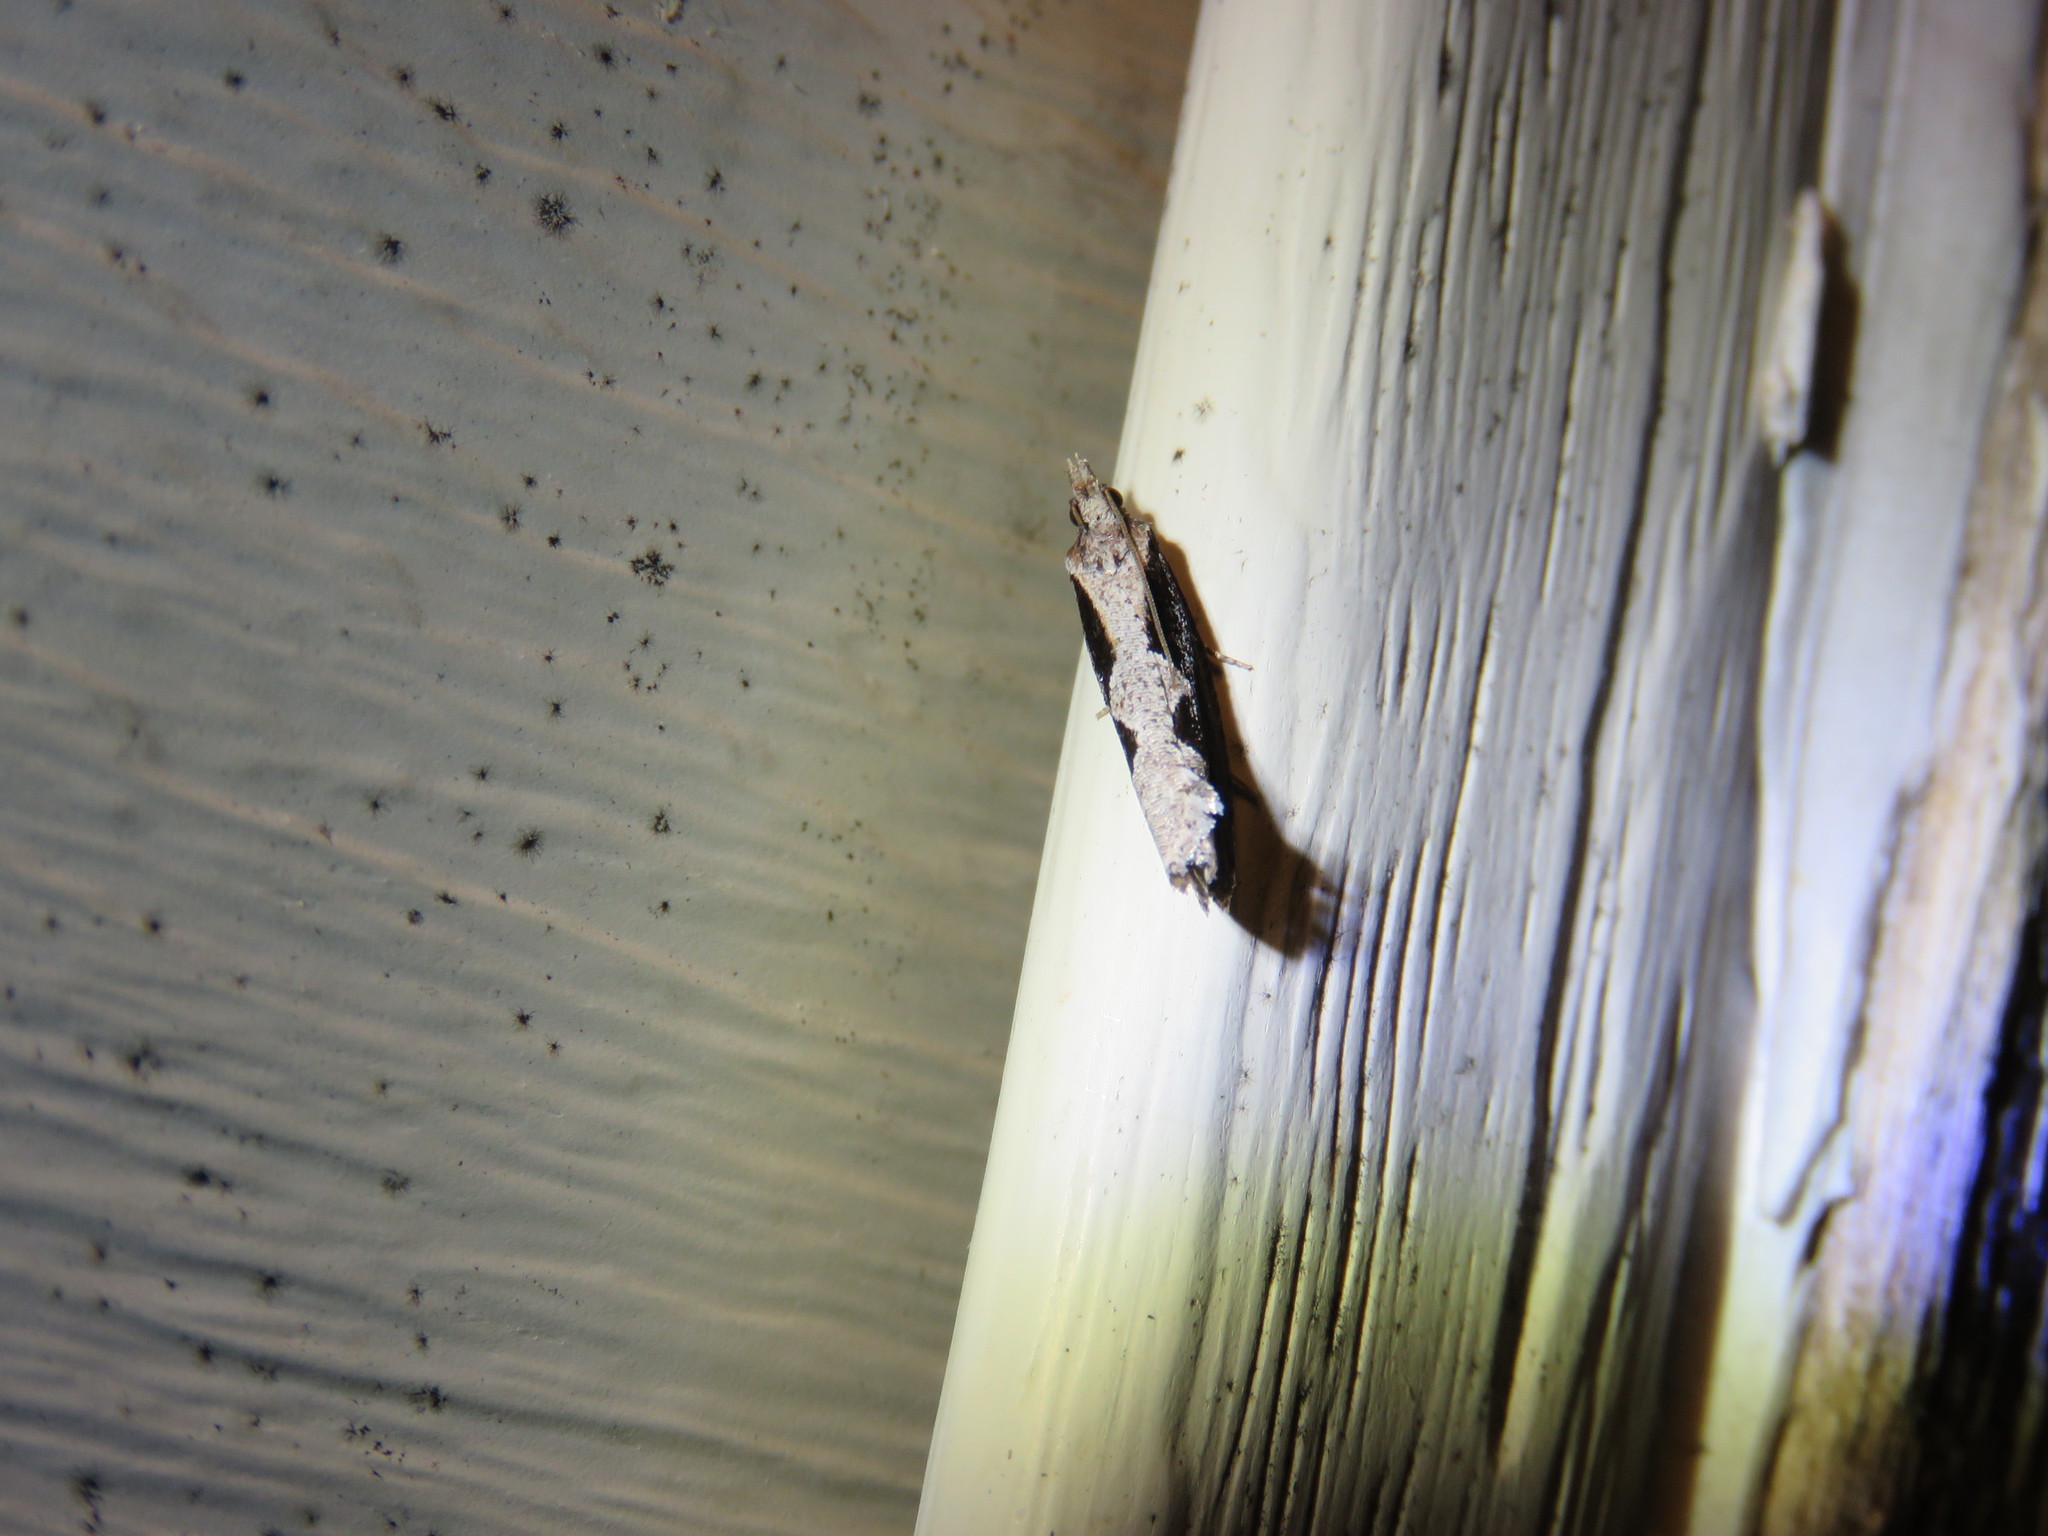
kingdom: Animalia
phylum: Arthropoda
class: Insecta
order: Lepidoptera
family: Tortricidae
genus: Epinotia
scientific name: Epinotia lindana
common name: Diamondback epinotia moth
